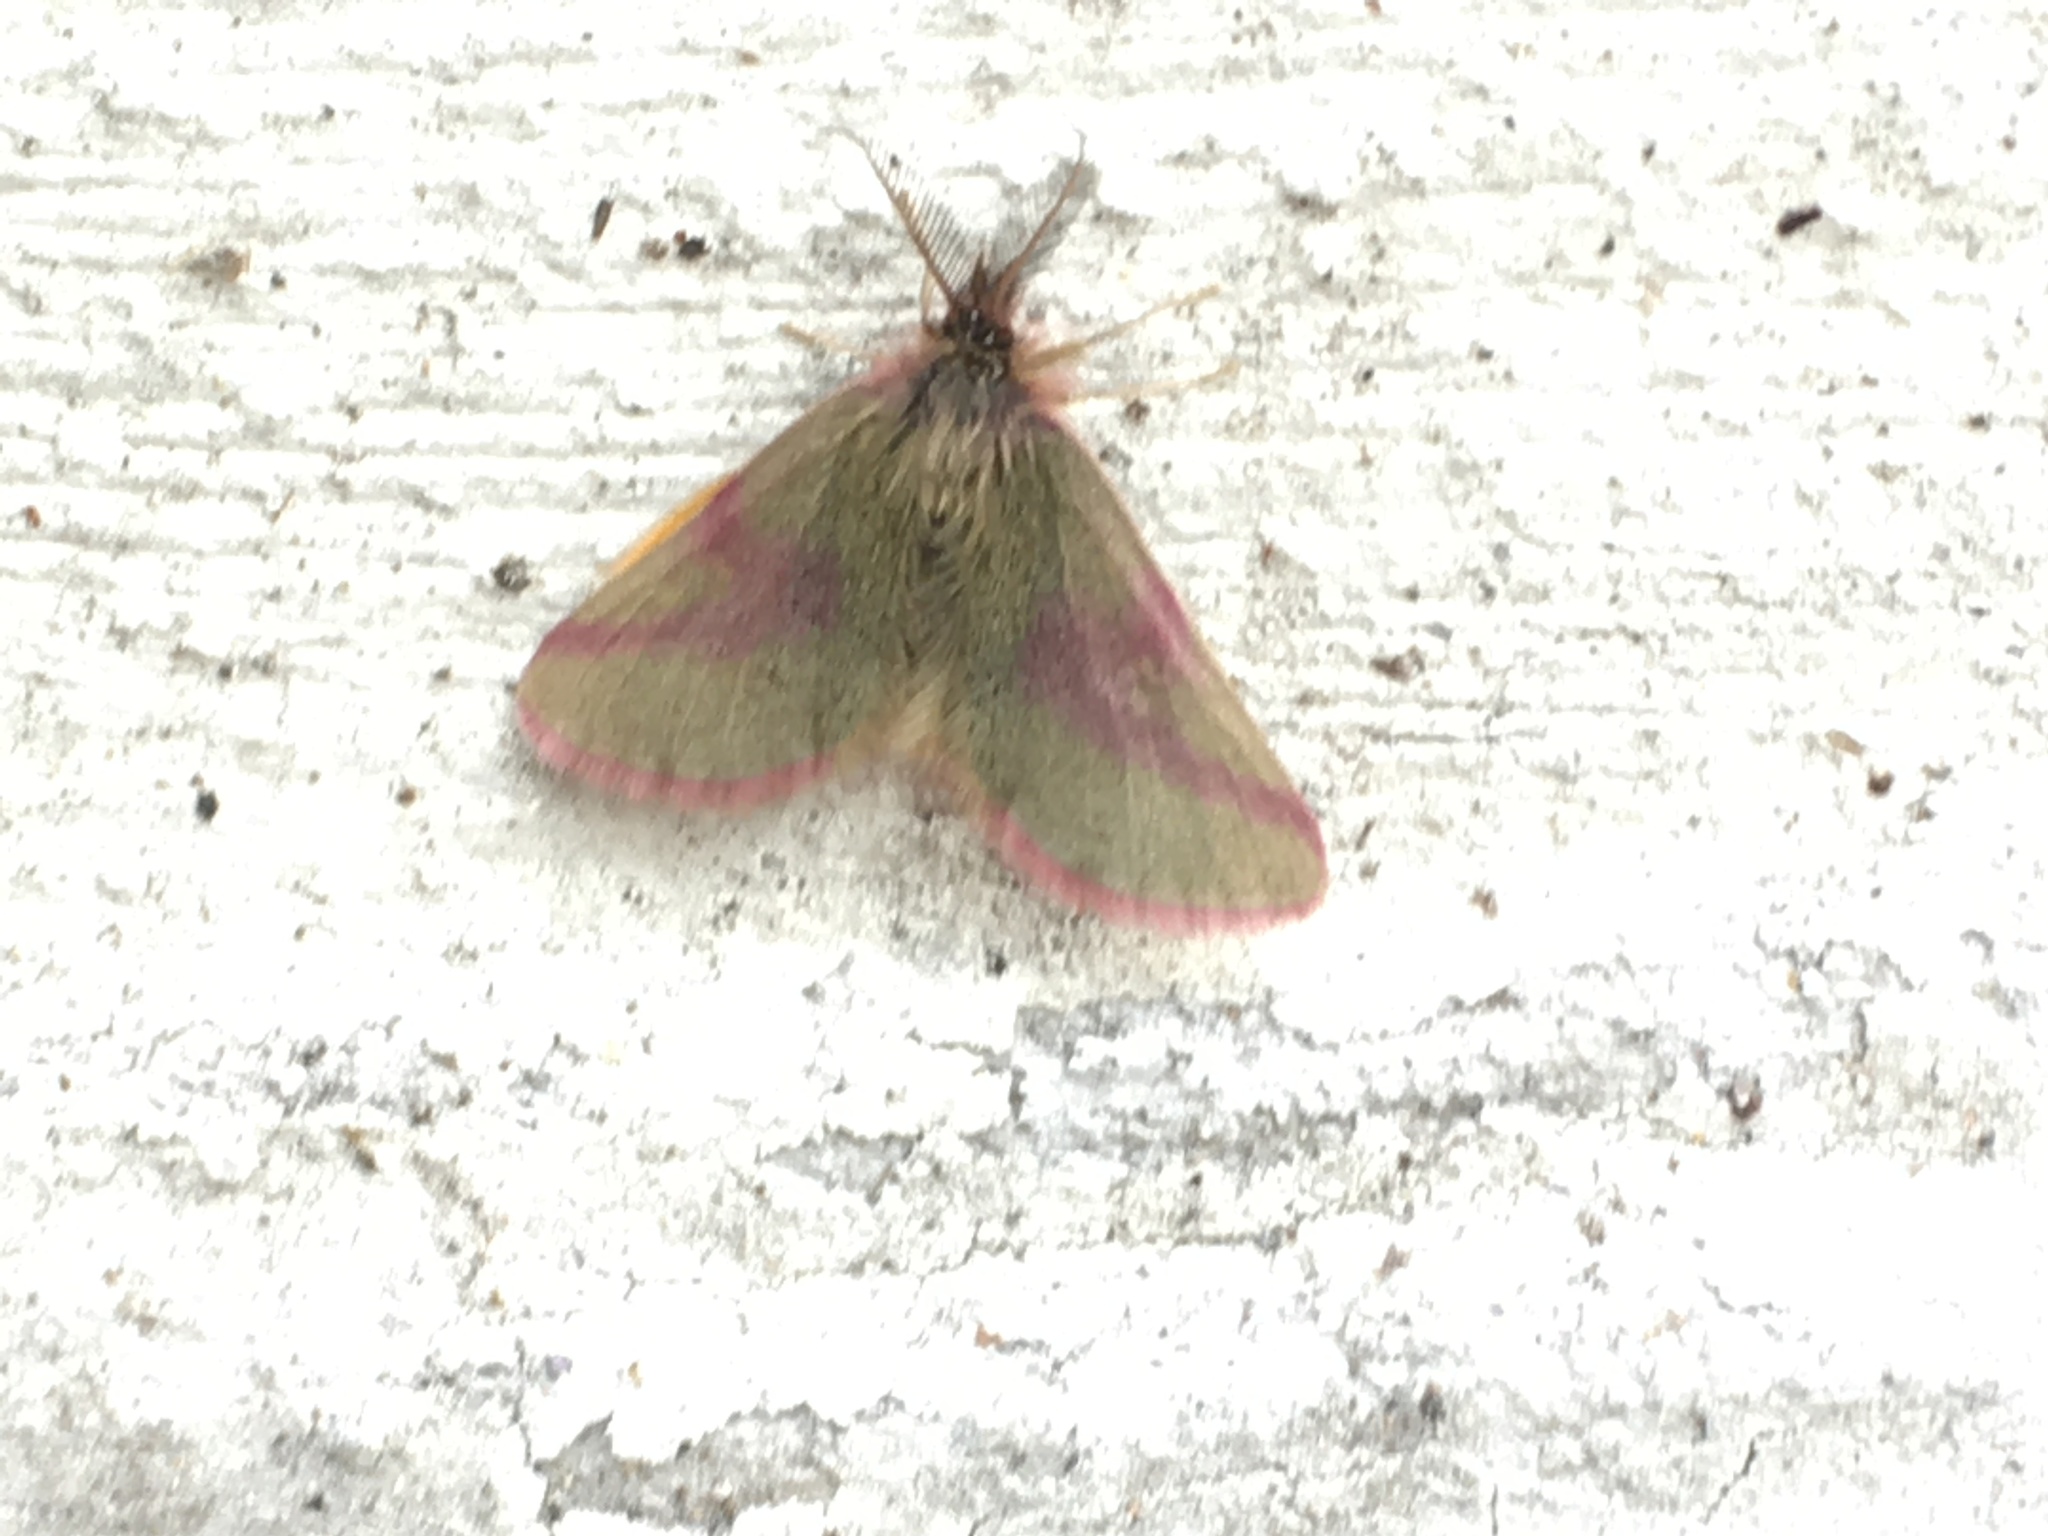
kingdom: Animalia
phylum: Arthropoda
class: Insecta
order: Lepidoptera
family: Geometridae
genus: Lythria
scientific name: Lythria purpuraria
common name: Purple-barred yellow
